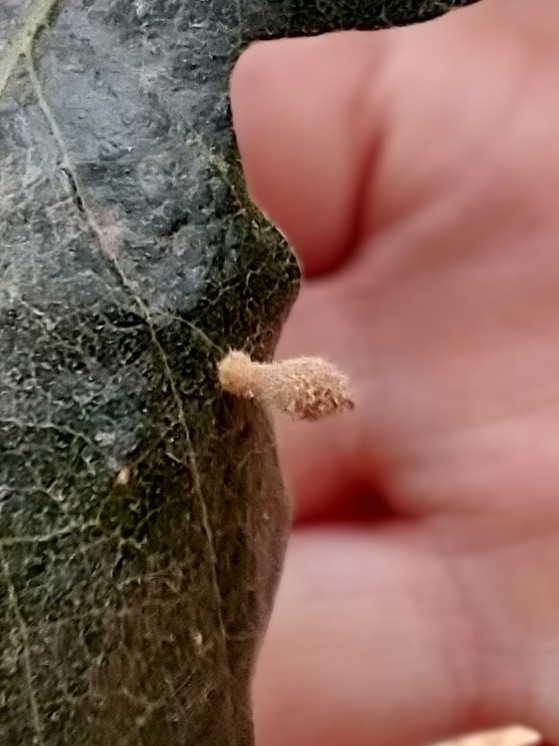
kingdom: Animalia
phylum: Arthropoda
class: Insecta
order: Hymenoptera
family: Cynipidae
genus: Atrusca
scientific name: Atrusca
